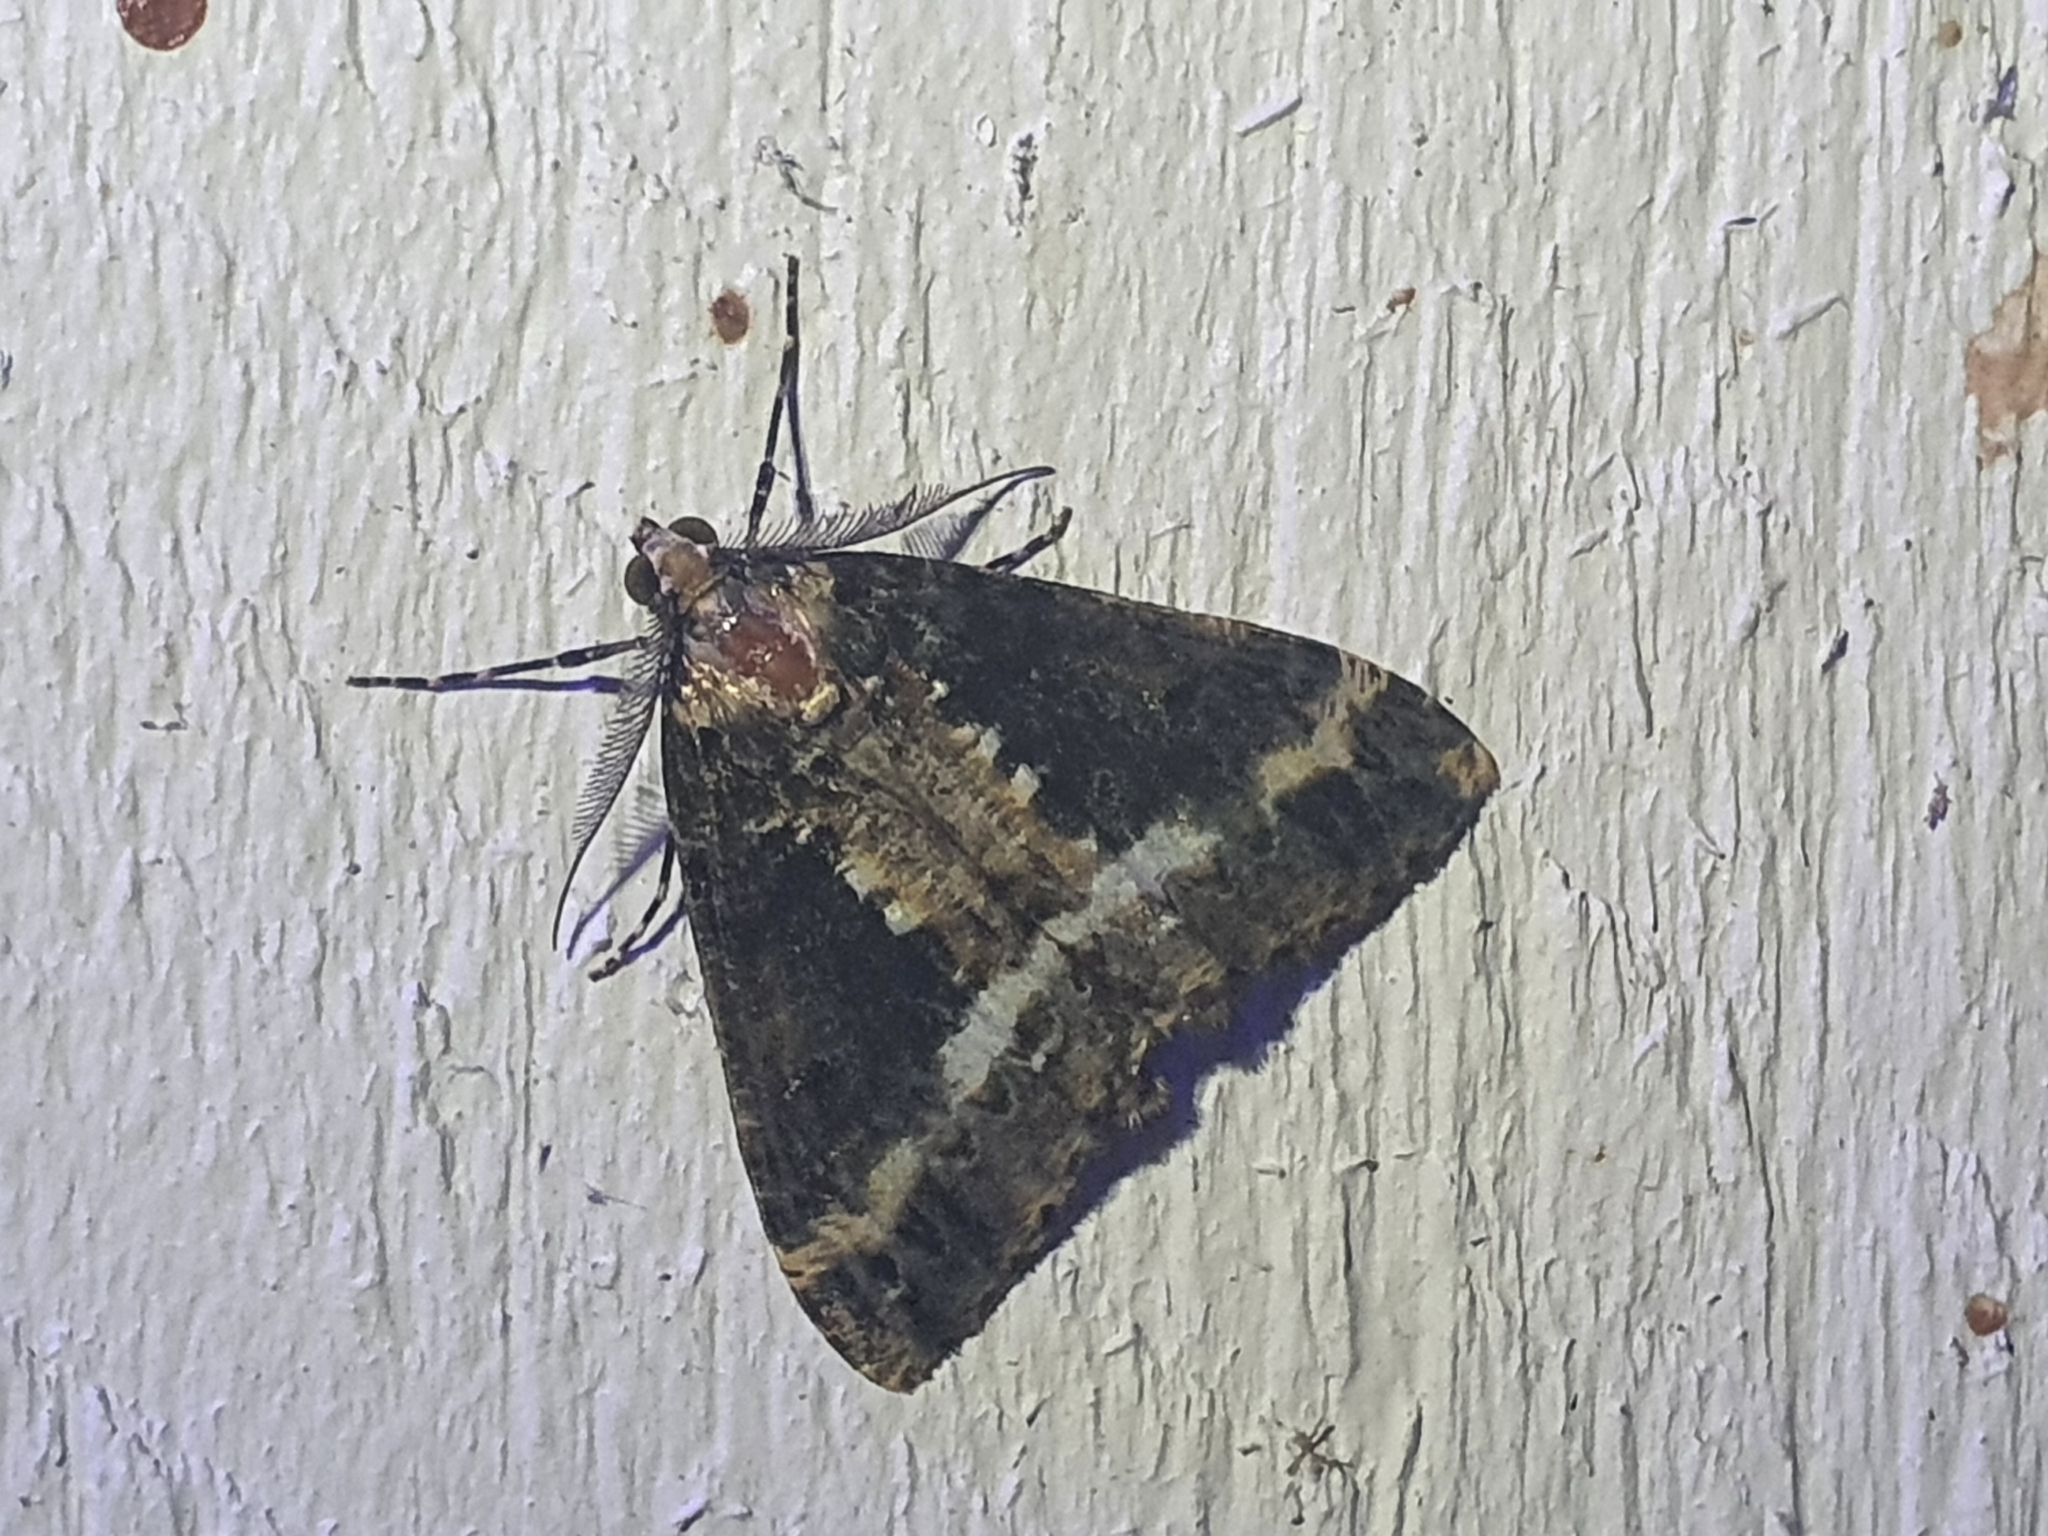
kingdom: Animalia
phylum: Arthropoda
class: Insecta
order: Lepidoptera
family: Geometridae
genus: Pseudocoremia
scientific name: Pseudocoremia leucelaea
